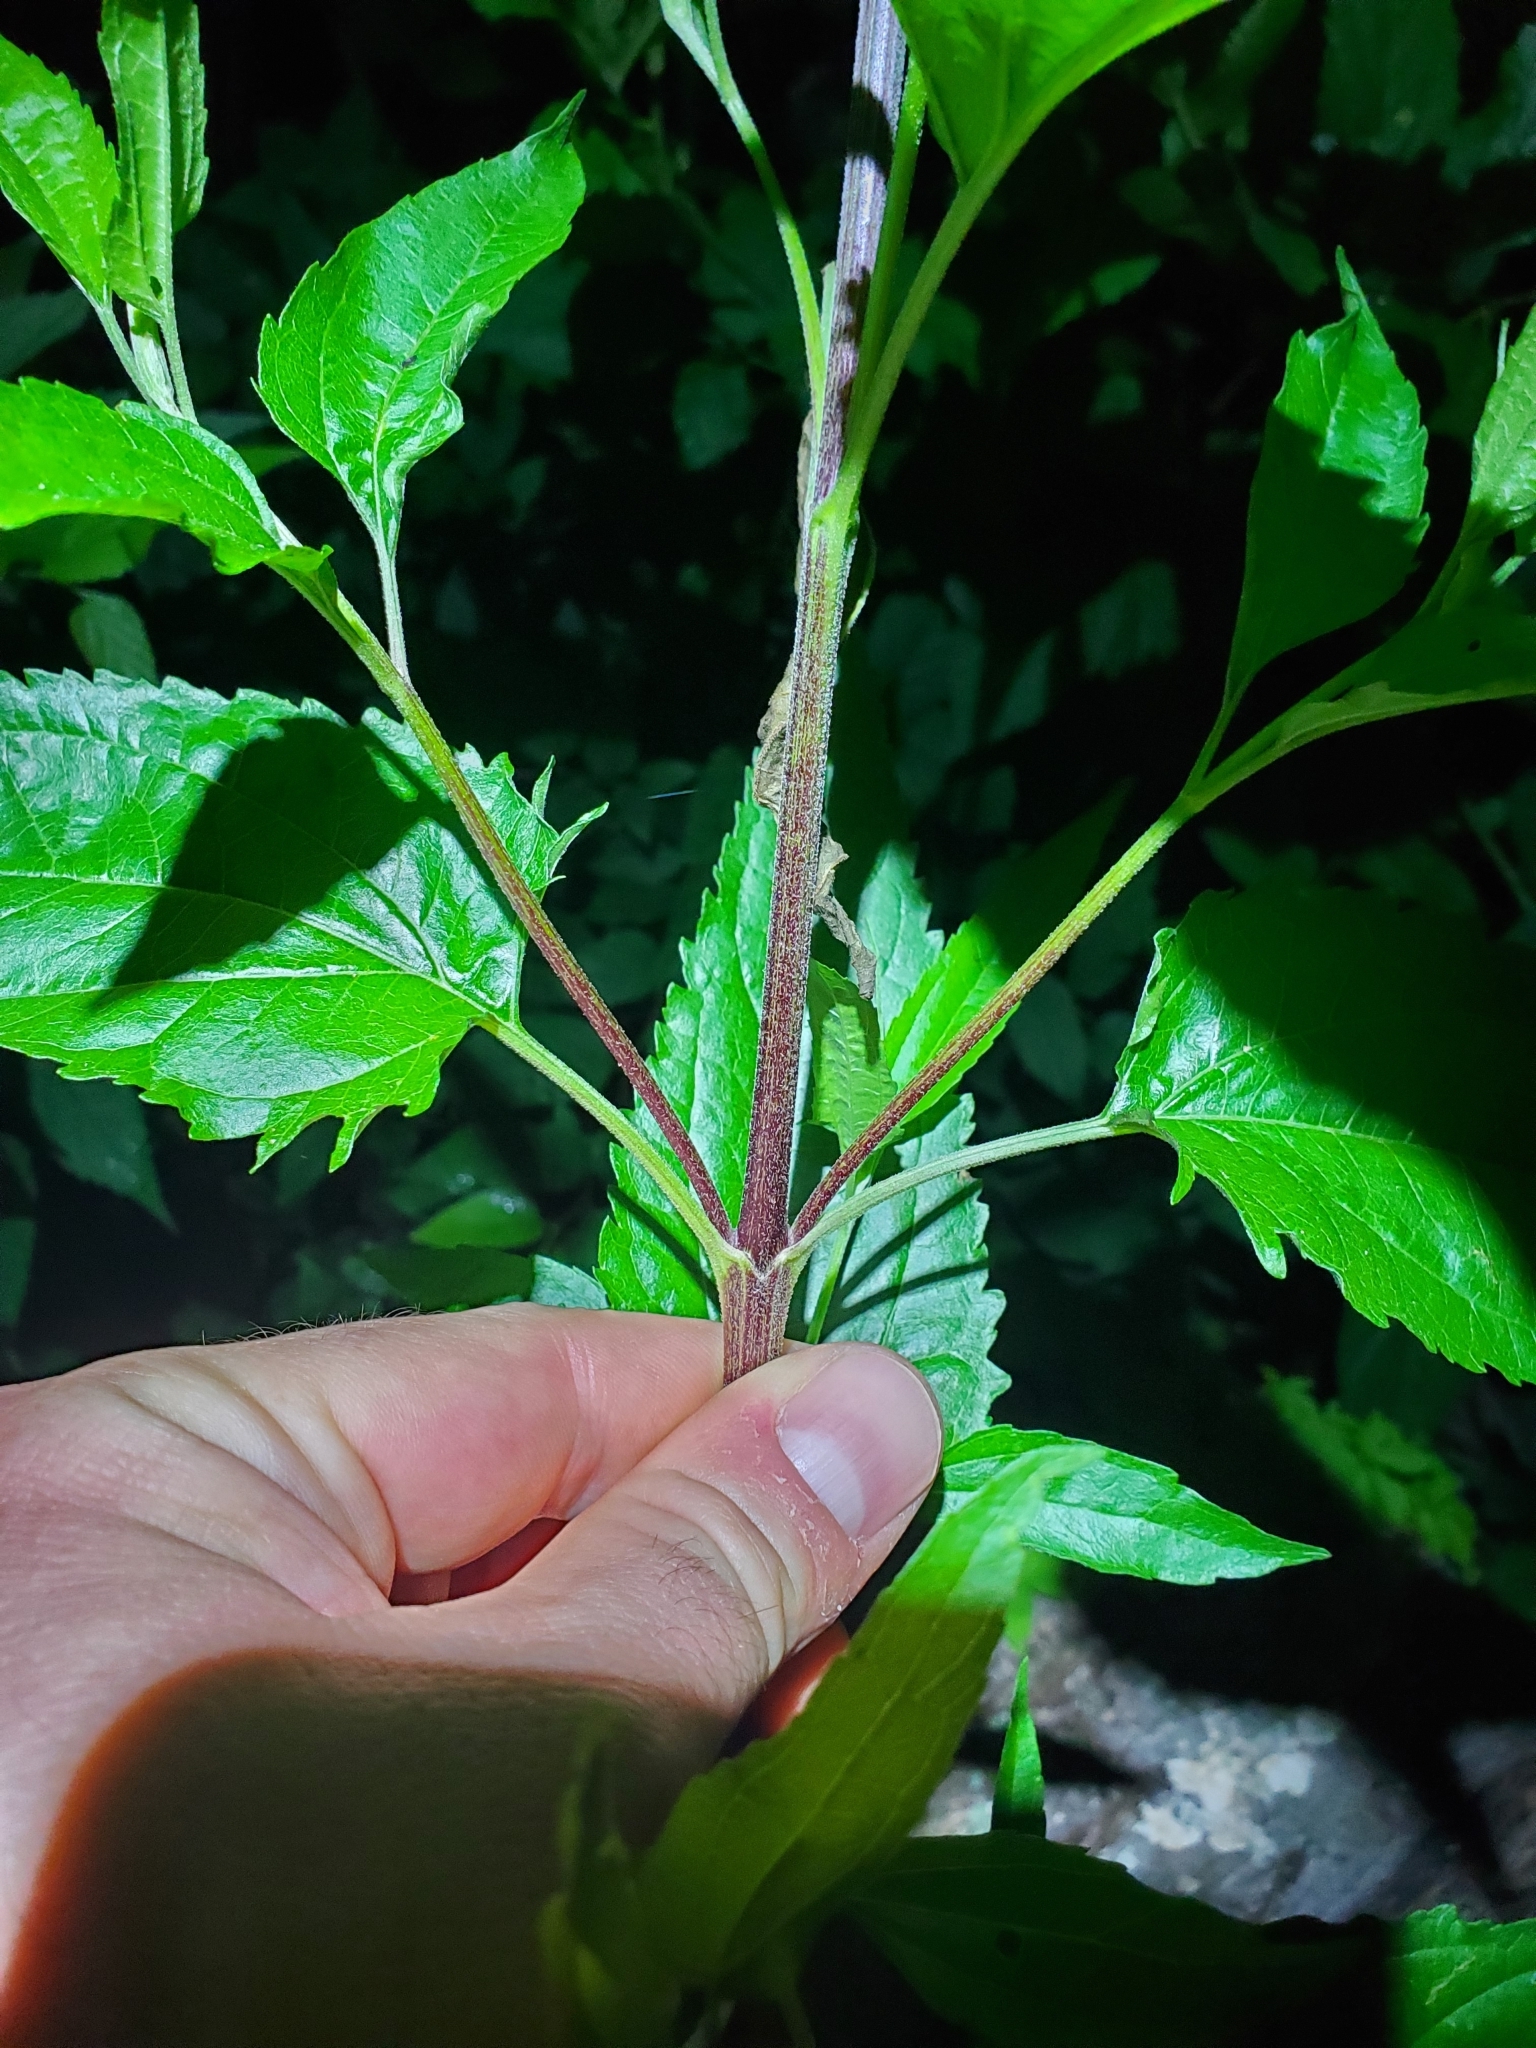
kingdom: Plantae
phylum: Tracheophyta
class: Magnoliopsida
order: Asterales
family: Asteraceae
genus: Eupatorium
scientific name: Eupatorium serotinum
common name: Late boneset
